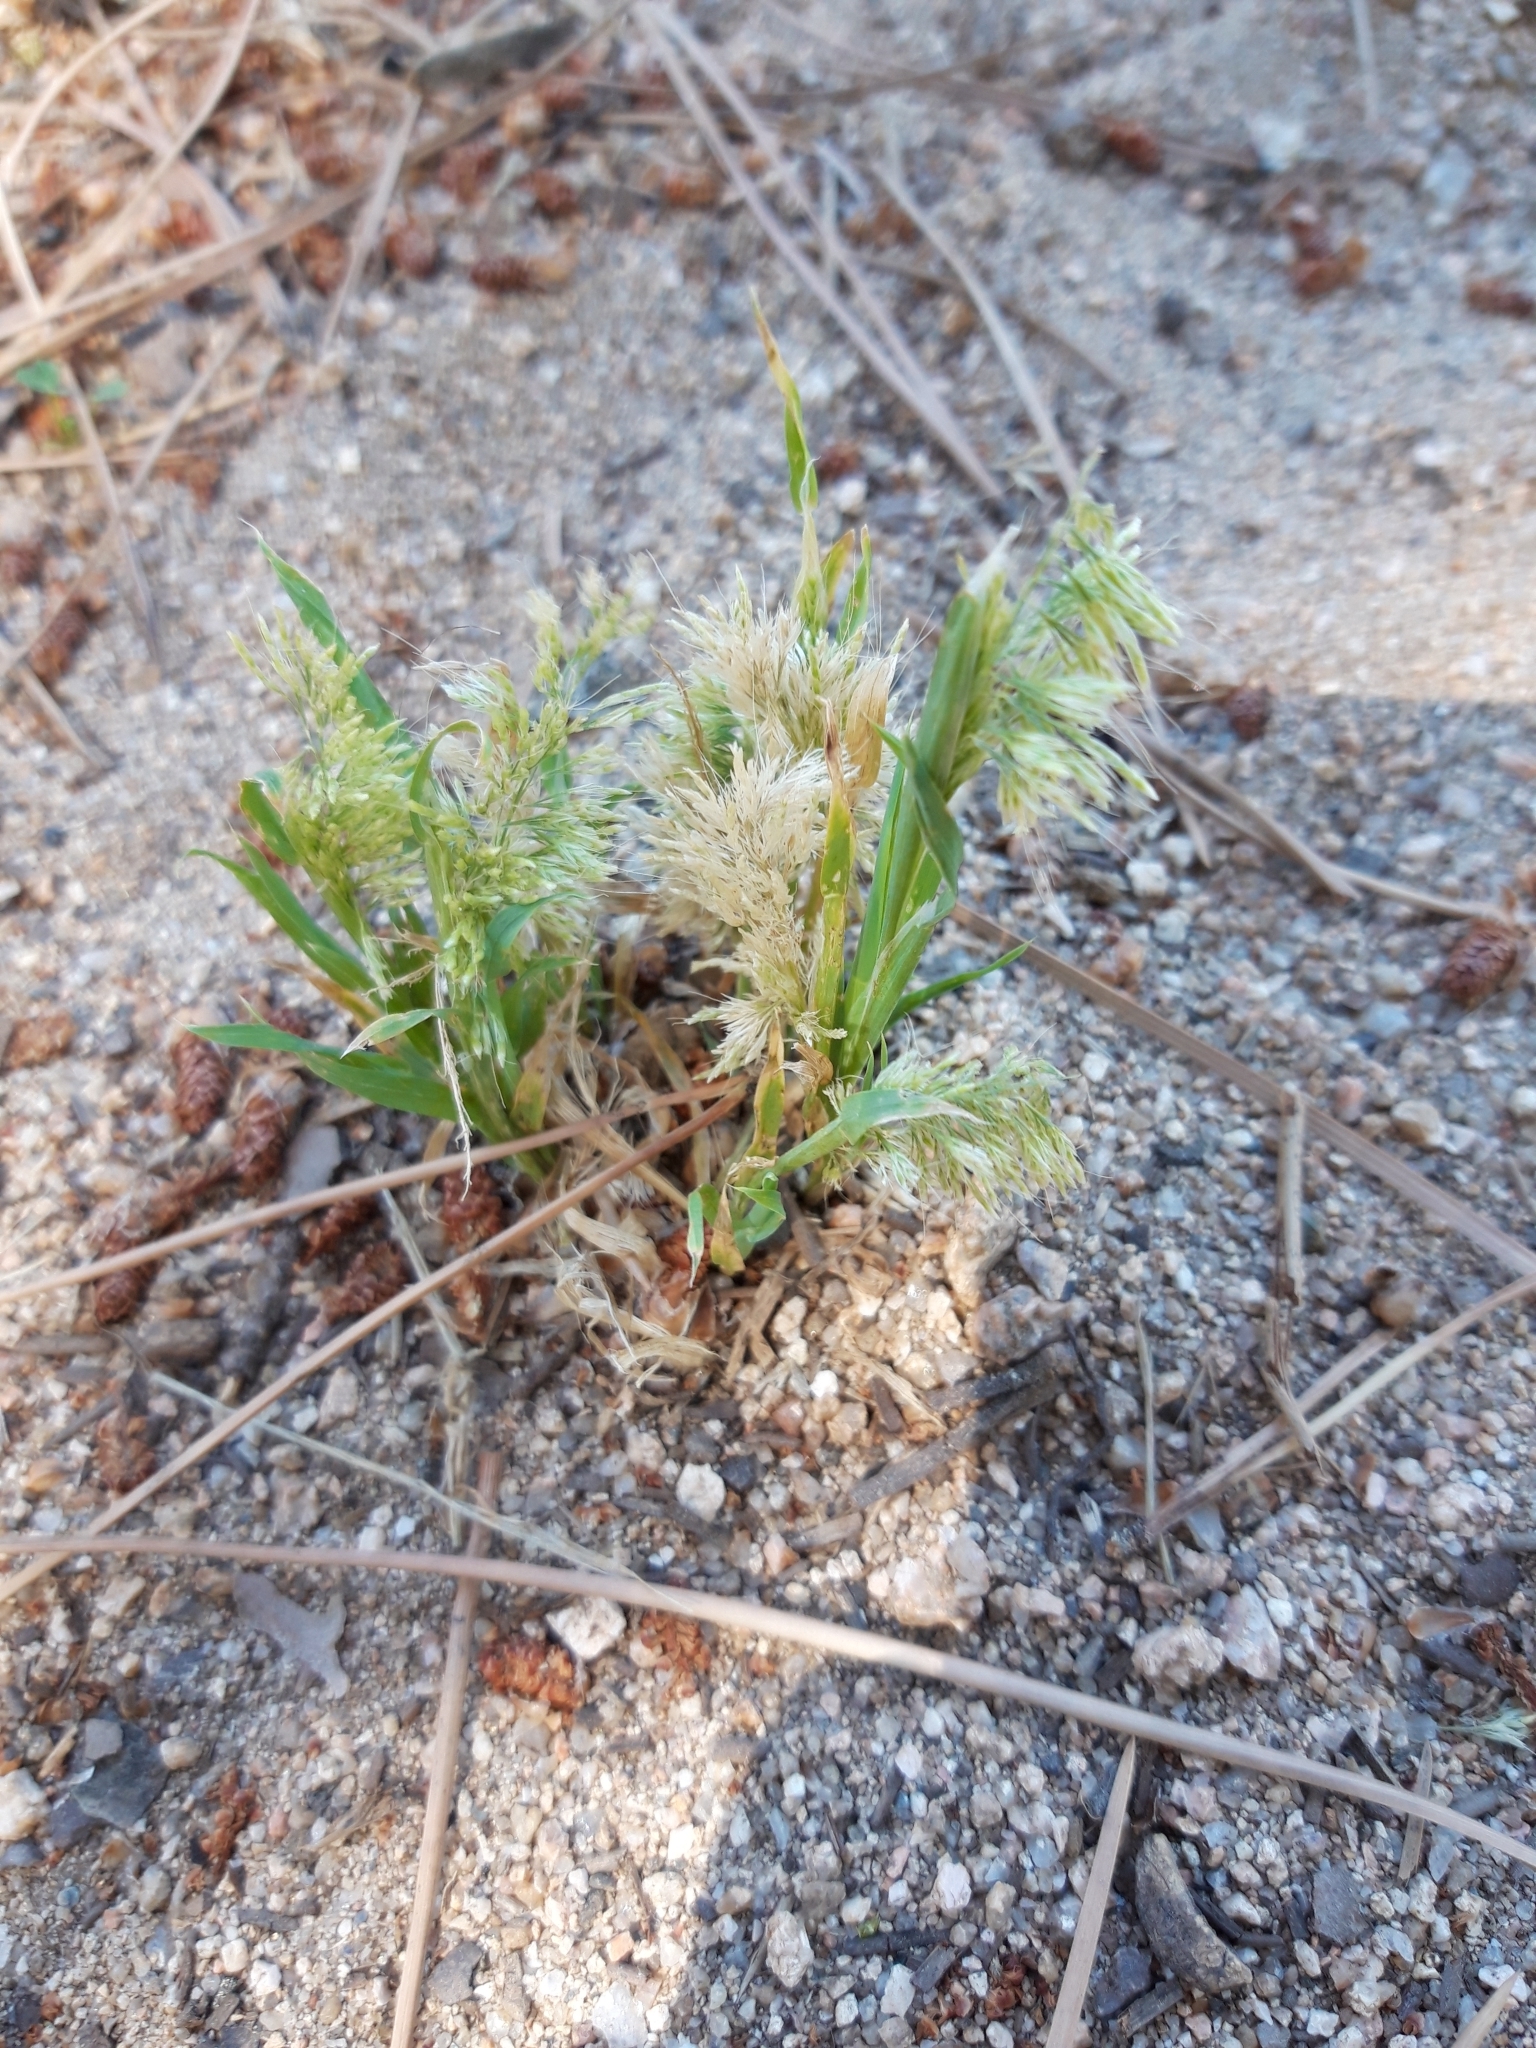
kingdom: Plantae
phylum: Tracheophyta
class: Liliopsida
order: Poales
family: Poaceae
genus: Lamarckia
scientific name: Lamarckia aurea
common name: Golden dog's-tail
